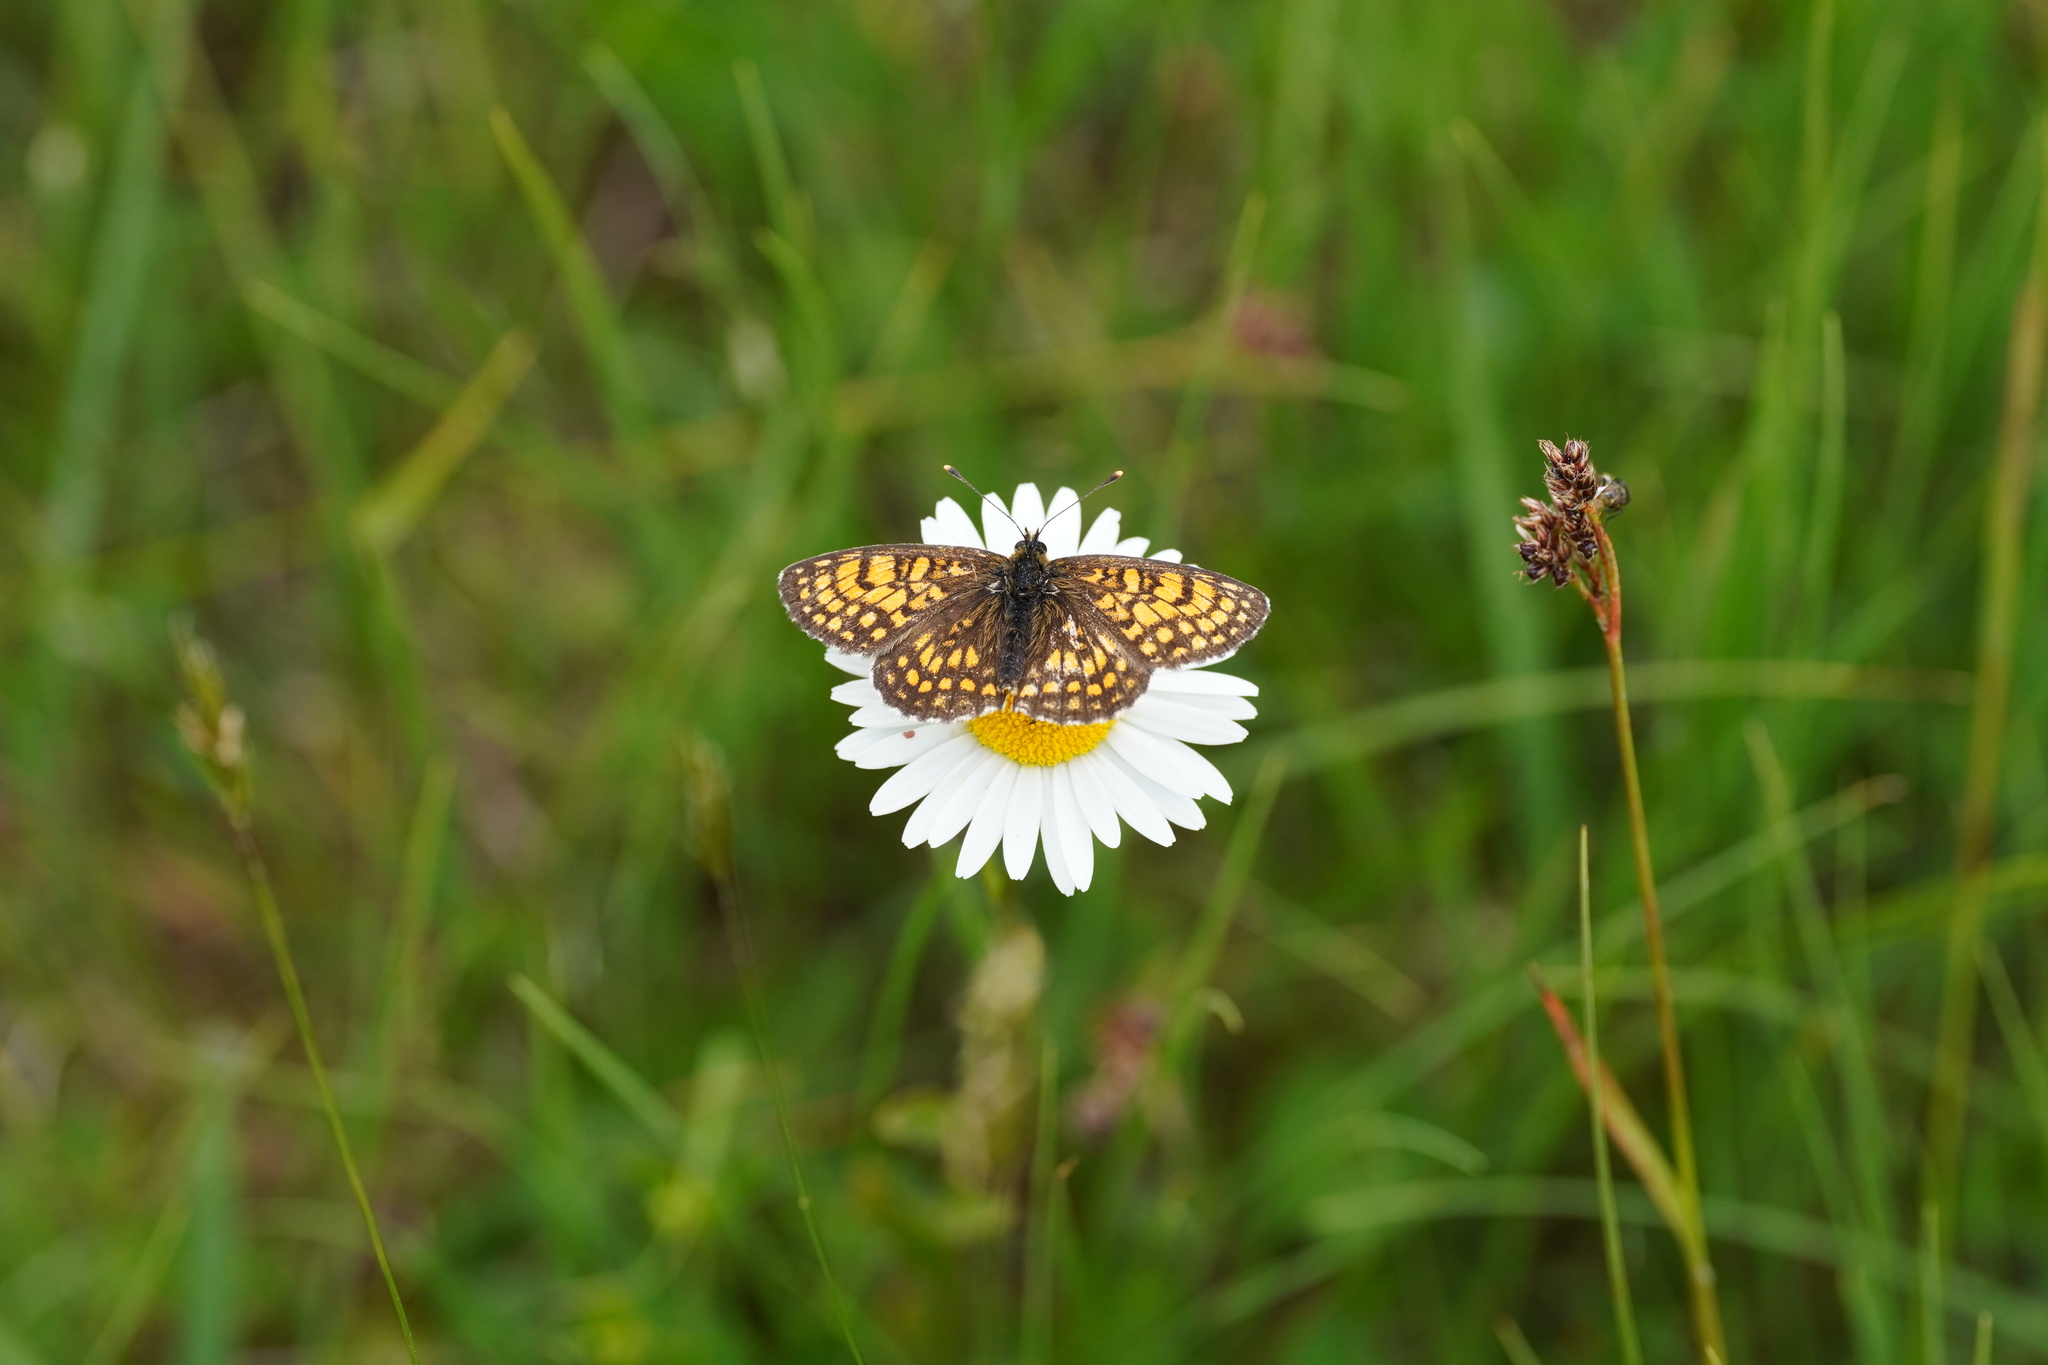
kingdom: Animalia
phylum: Arthropoda
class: Insecta
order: Lepidoptera
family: Nymphalidae
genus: Melitaea
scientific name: Melitaea athalia
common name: Heath fritillary
